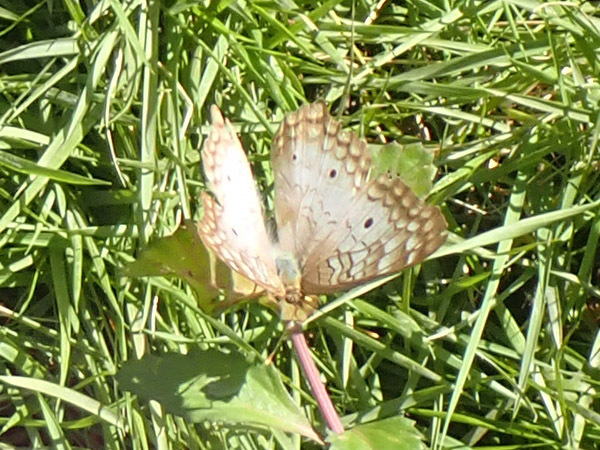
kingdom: Animalia
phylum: Arthropoda
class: Insecta
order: Lepidoptera
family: Nymphalidae
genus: Anartia
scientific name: Anartia jatrophae
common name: White peacock
